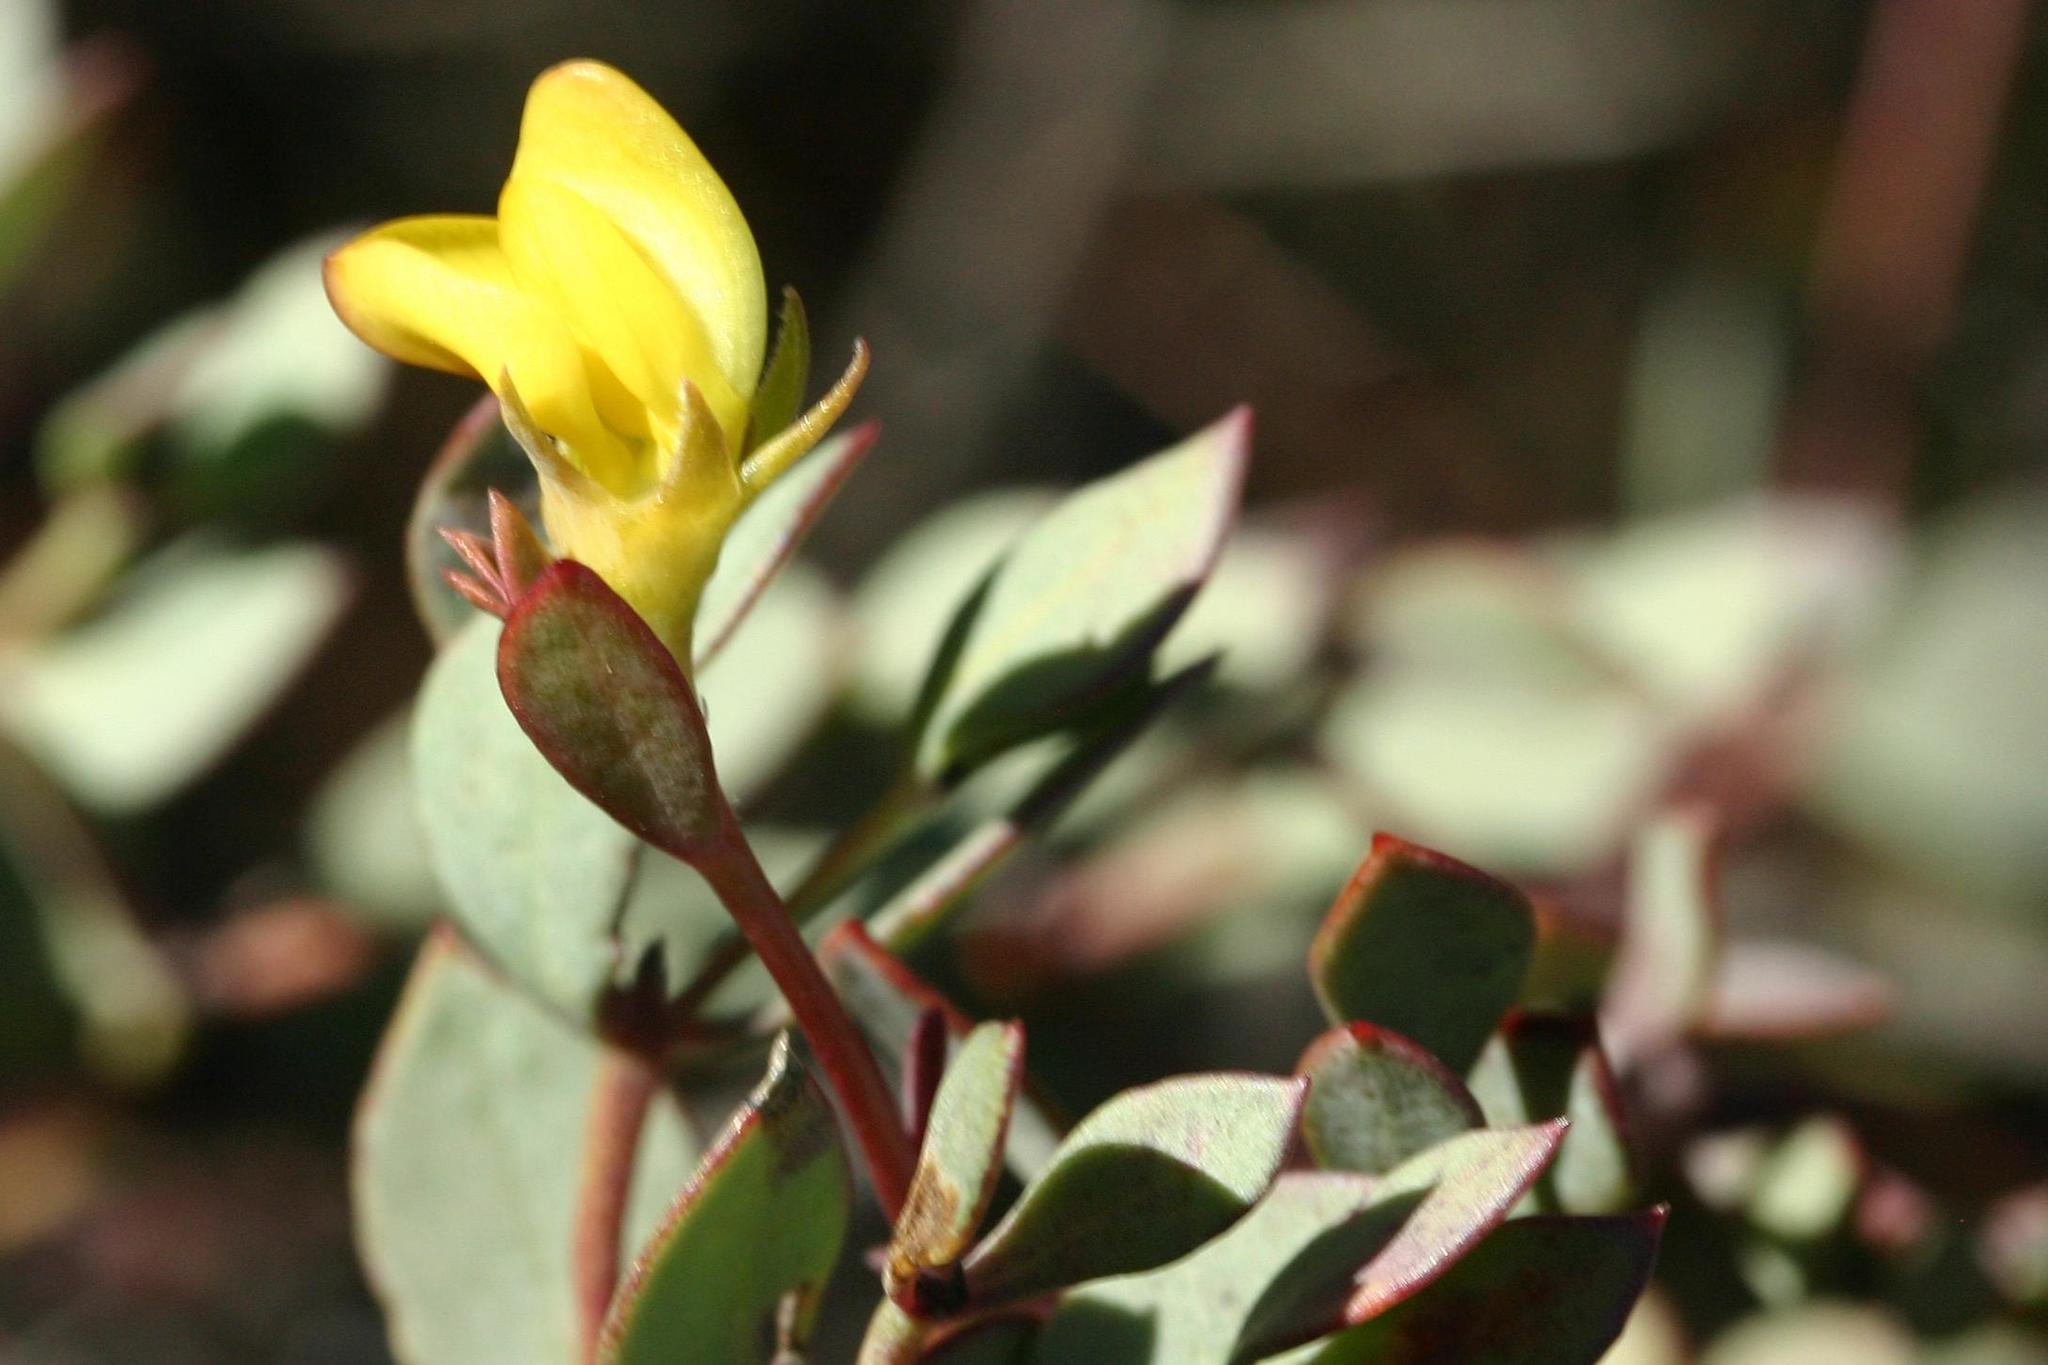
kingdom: Plantae
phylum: Tracheophyta
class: Magnoliopsida
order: Fabales
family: Fabaceae
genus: Rafnia
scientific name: Rafnia capensis
